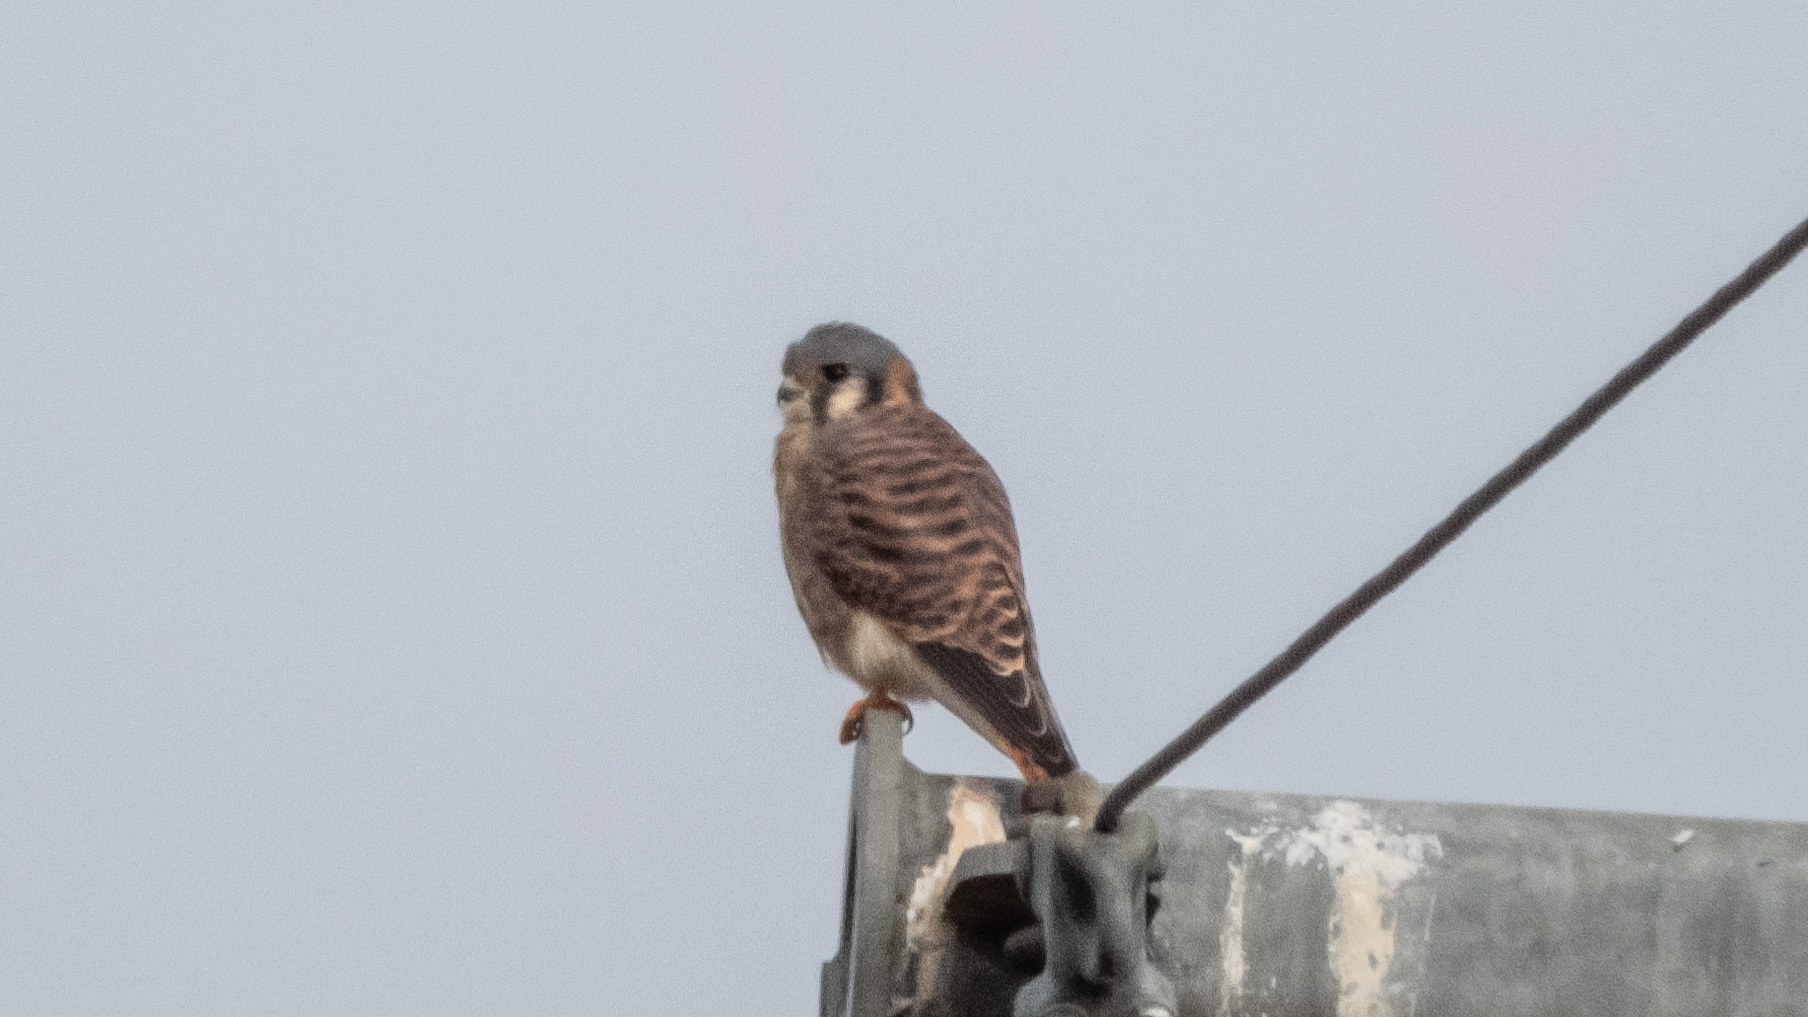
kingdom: Animalia
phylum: Chordata
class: Aves
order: Falconiformes
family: Falconidae
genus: Falco
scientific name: Falco sparverius
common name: American kestrel
